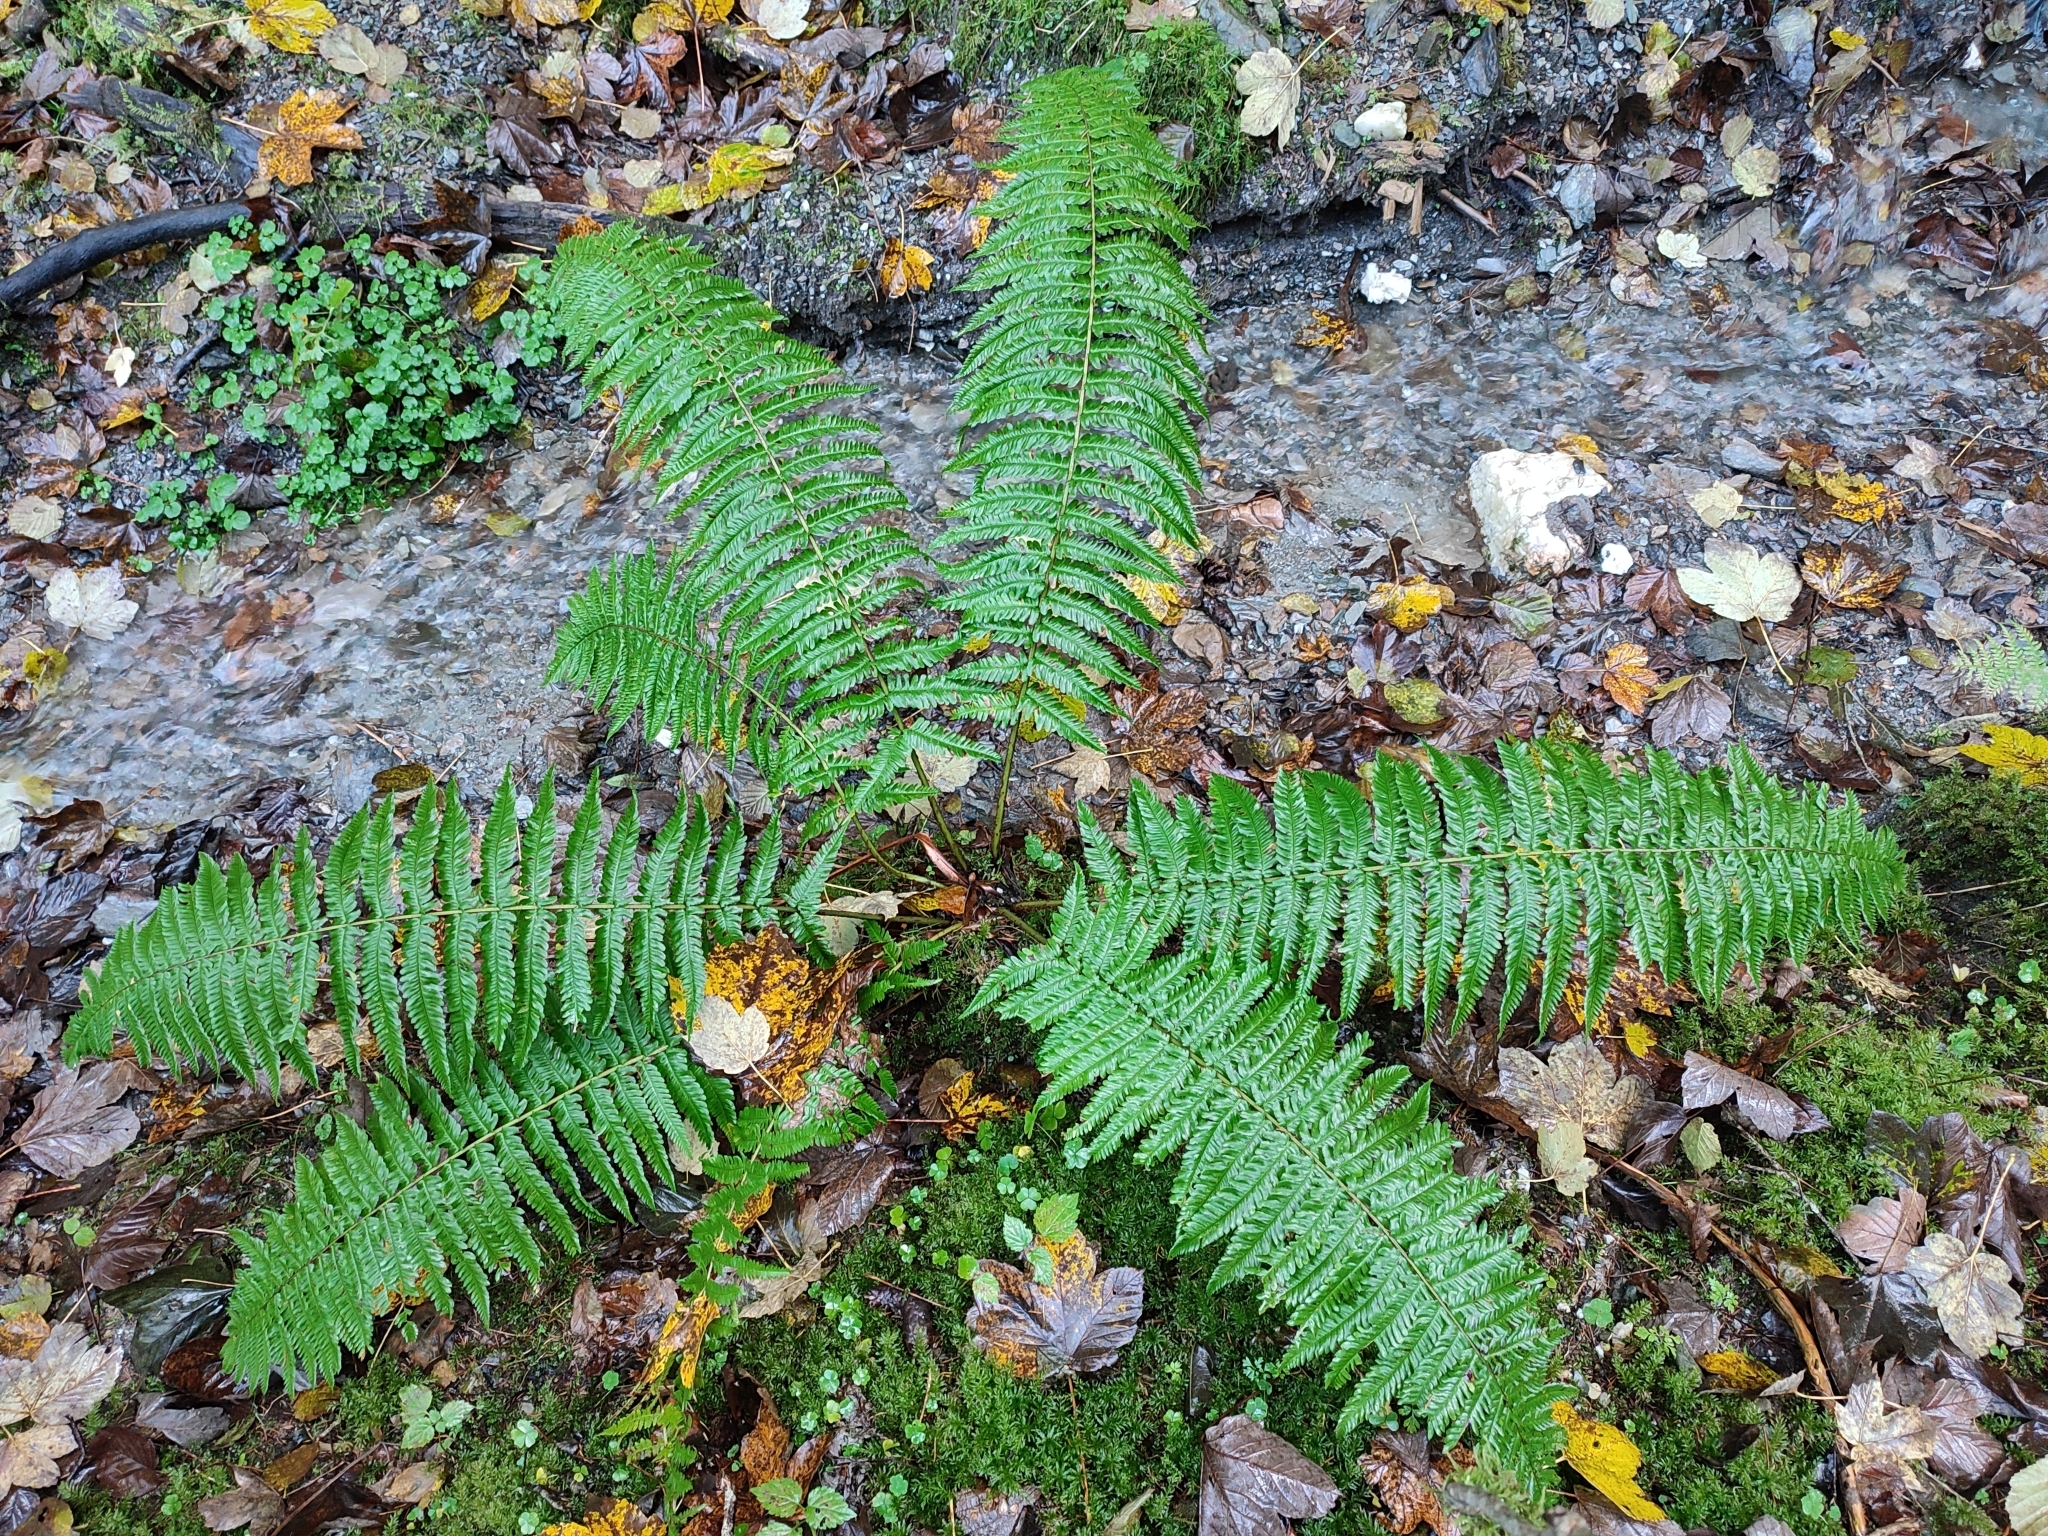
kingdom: Plantae
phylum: Tracheophyta
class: Polypodiopsida
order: Polypodiales
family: Dryopteridaceae
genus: Dryopteris
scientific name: Dryopteris borreri
